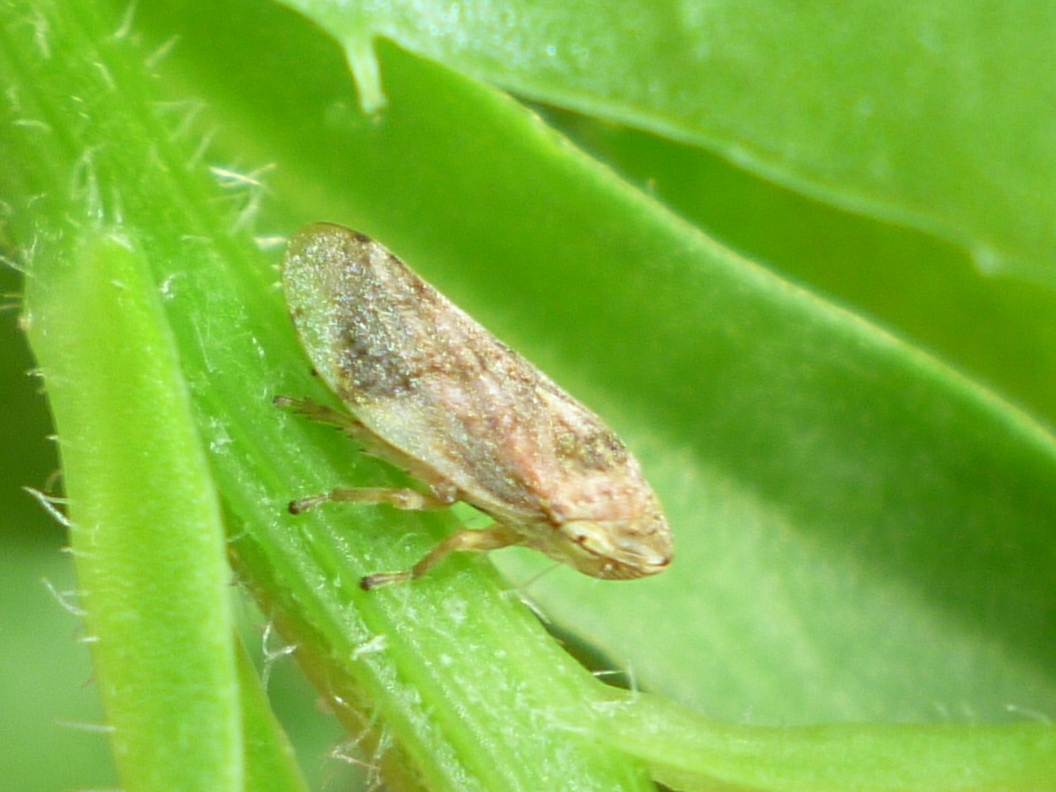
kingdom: Animalia
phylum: Arthropoda
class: Insecta
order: Hemiptera
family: Aphrophoridae
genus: Philaenus
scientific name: Philaenus spumarius
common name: Meadow spittlebug
